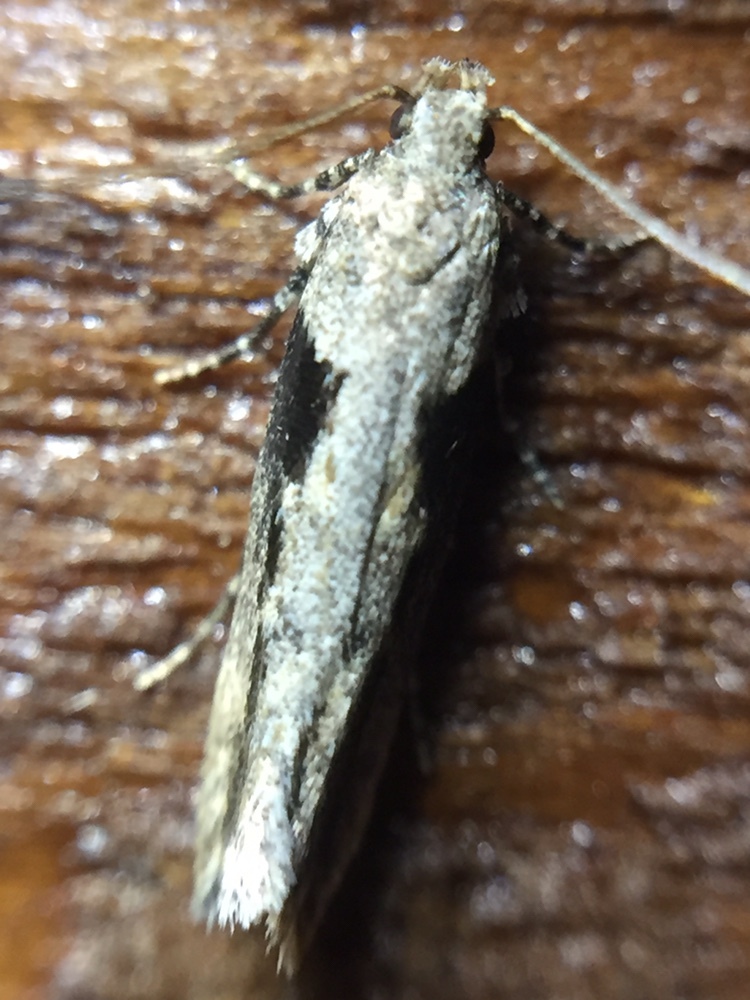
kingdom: Animalia
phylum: Arthropoda
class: Insecta
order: Lepidoptera
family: Gelechiidae
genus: Symmetrischema
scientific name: Symmetrischema tangolias
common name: Moth
